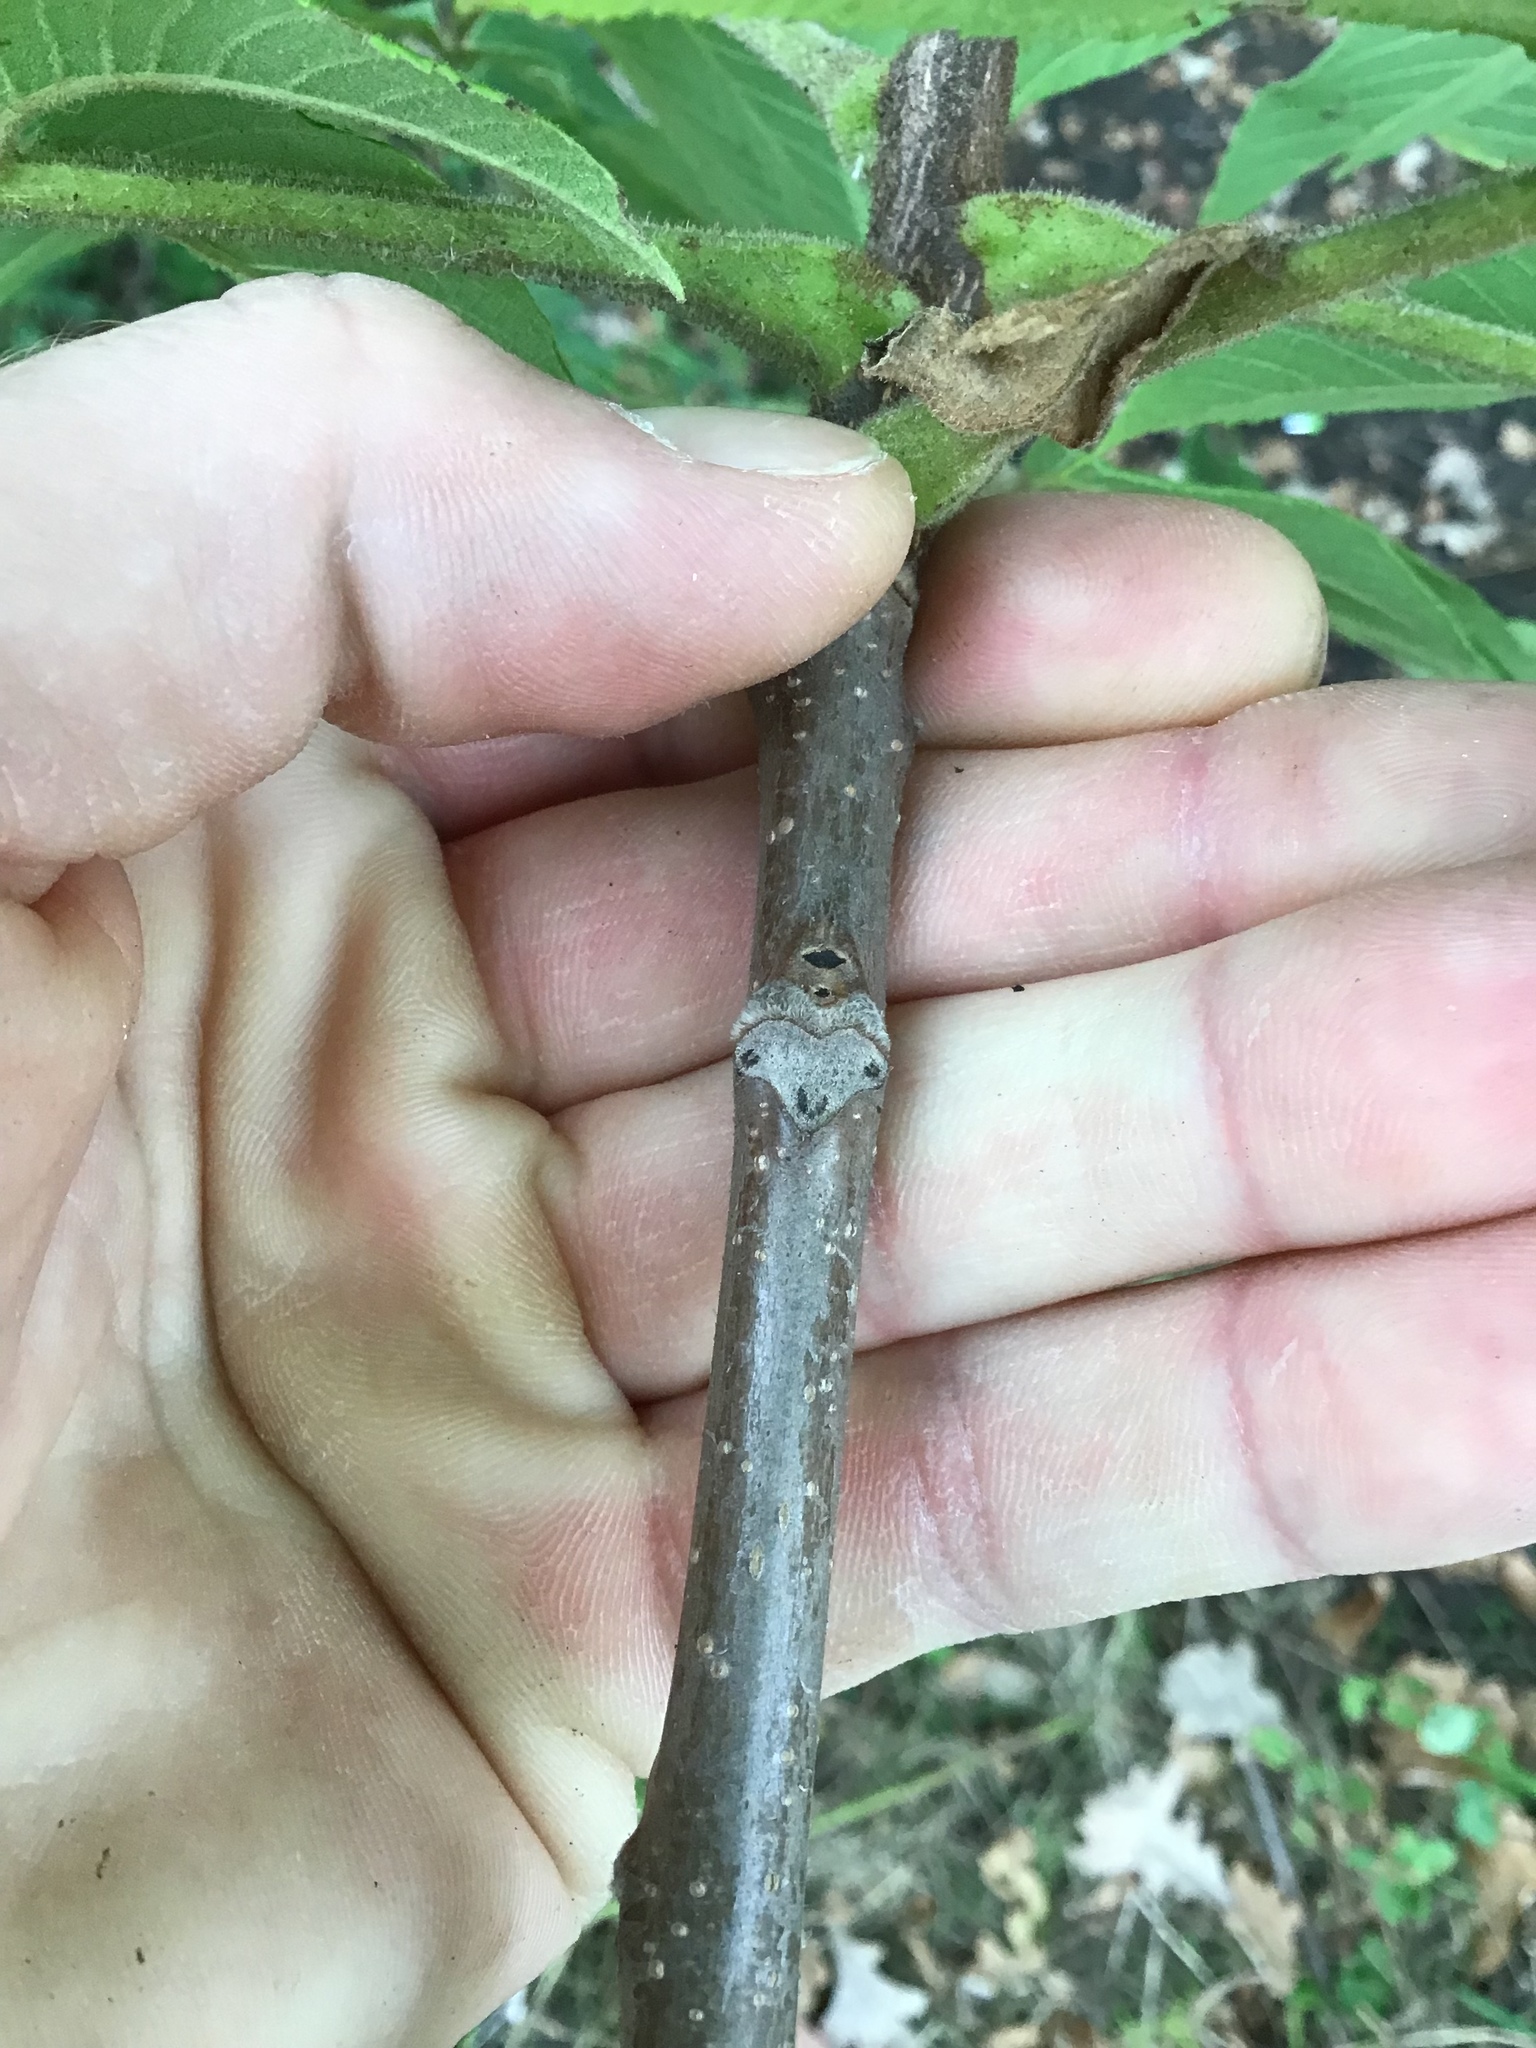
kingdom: Plantae
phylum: Tracheophyta
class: Magnoliopsida
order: Fagales
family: Juglandaceae
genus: Juglans
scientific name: Juglans cinerea
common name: Butternut
